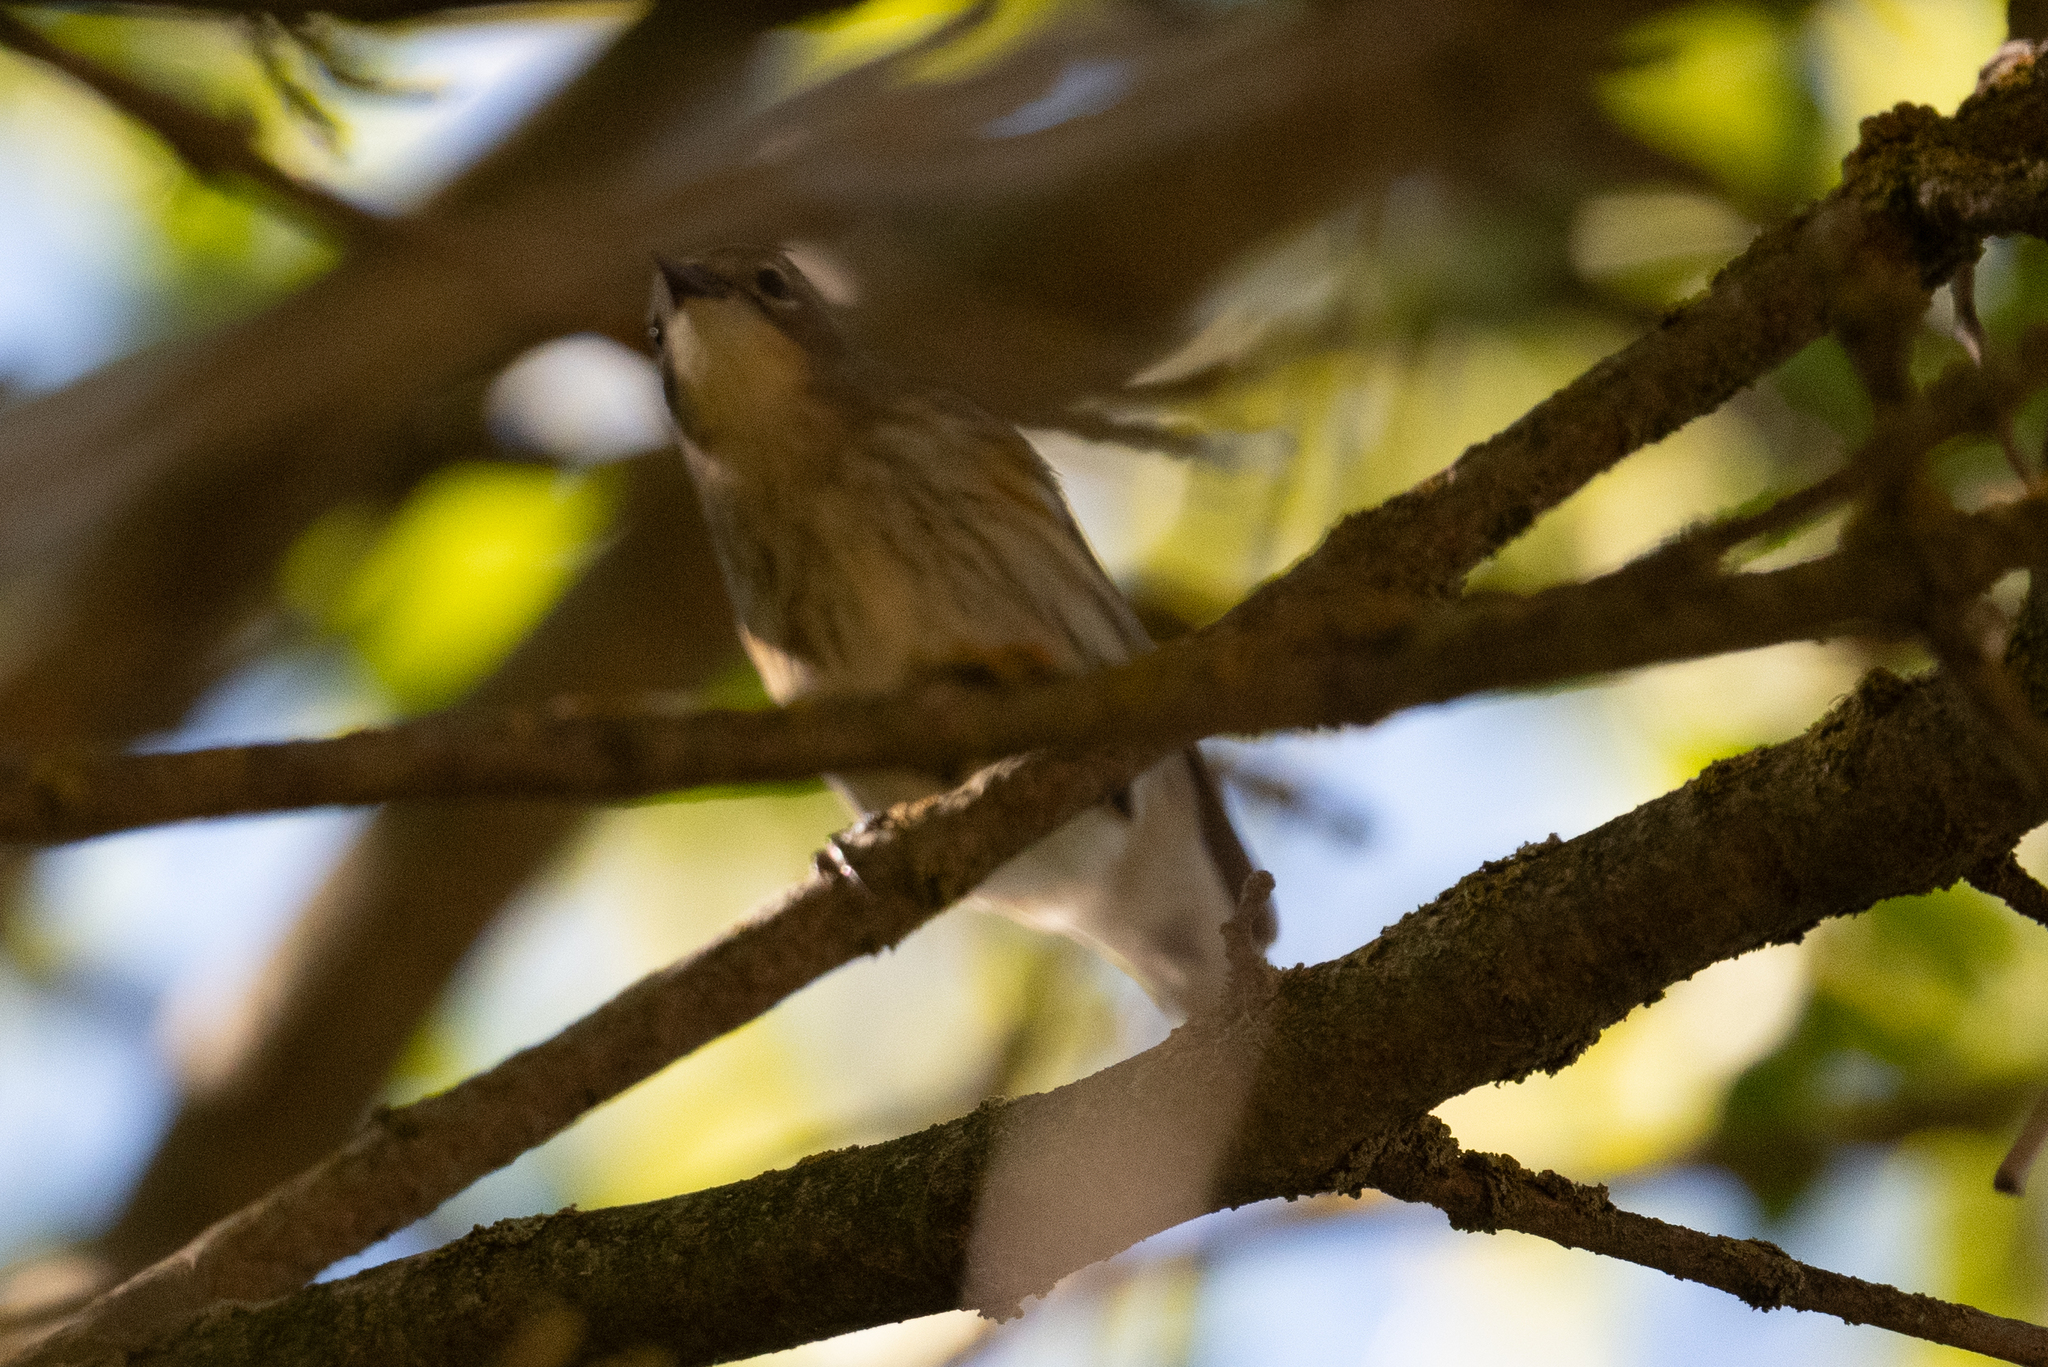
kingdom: Animalia
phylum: Chordata
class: Aves
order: Passeriformes
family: Parulidae
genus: Setophaga
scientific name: Setophaga coronata
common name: Myrtle warbler
